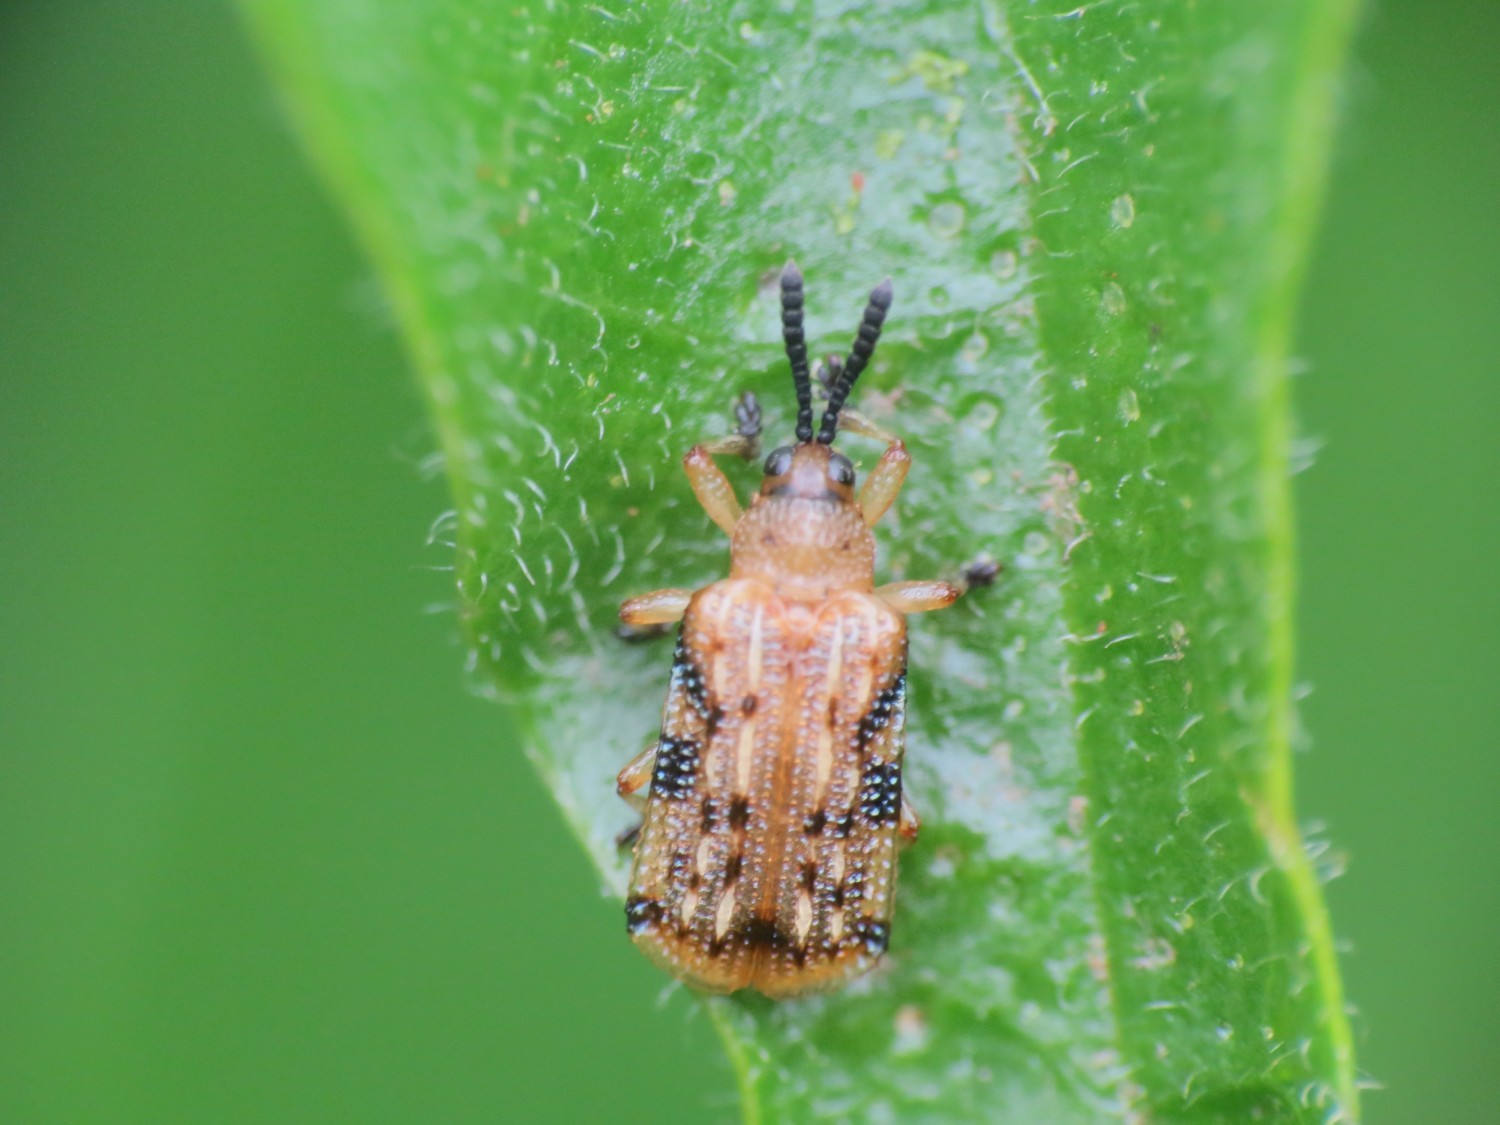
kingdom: Animalia
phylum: Arthropoda
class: Insecta
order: Coleoptera
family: Chrysomelidae
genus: Sumitrosis
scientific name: Sumitrosis signifera
